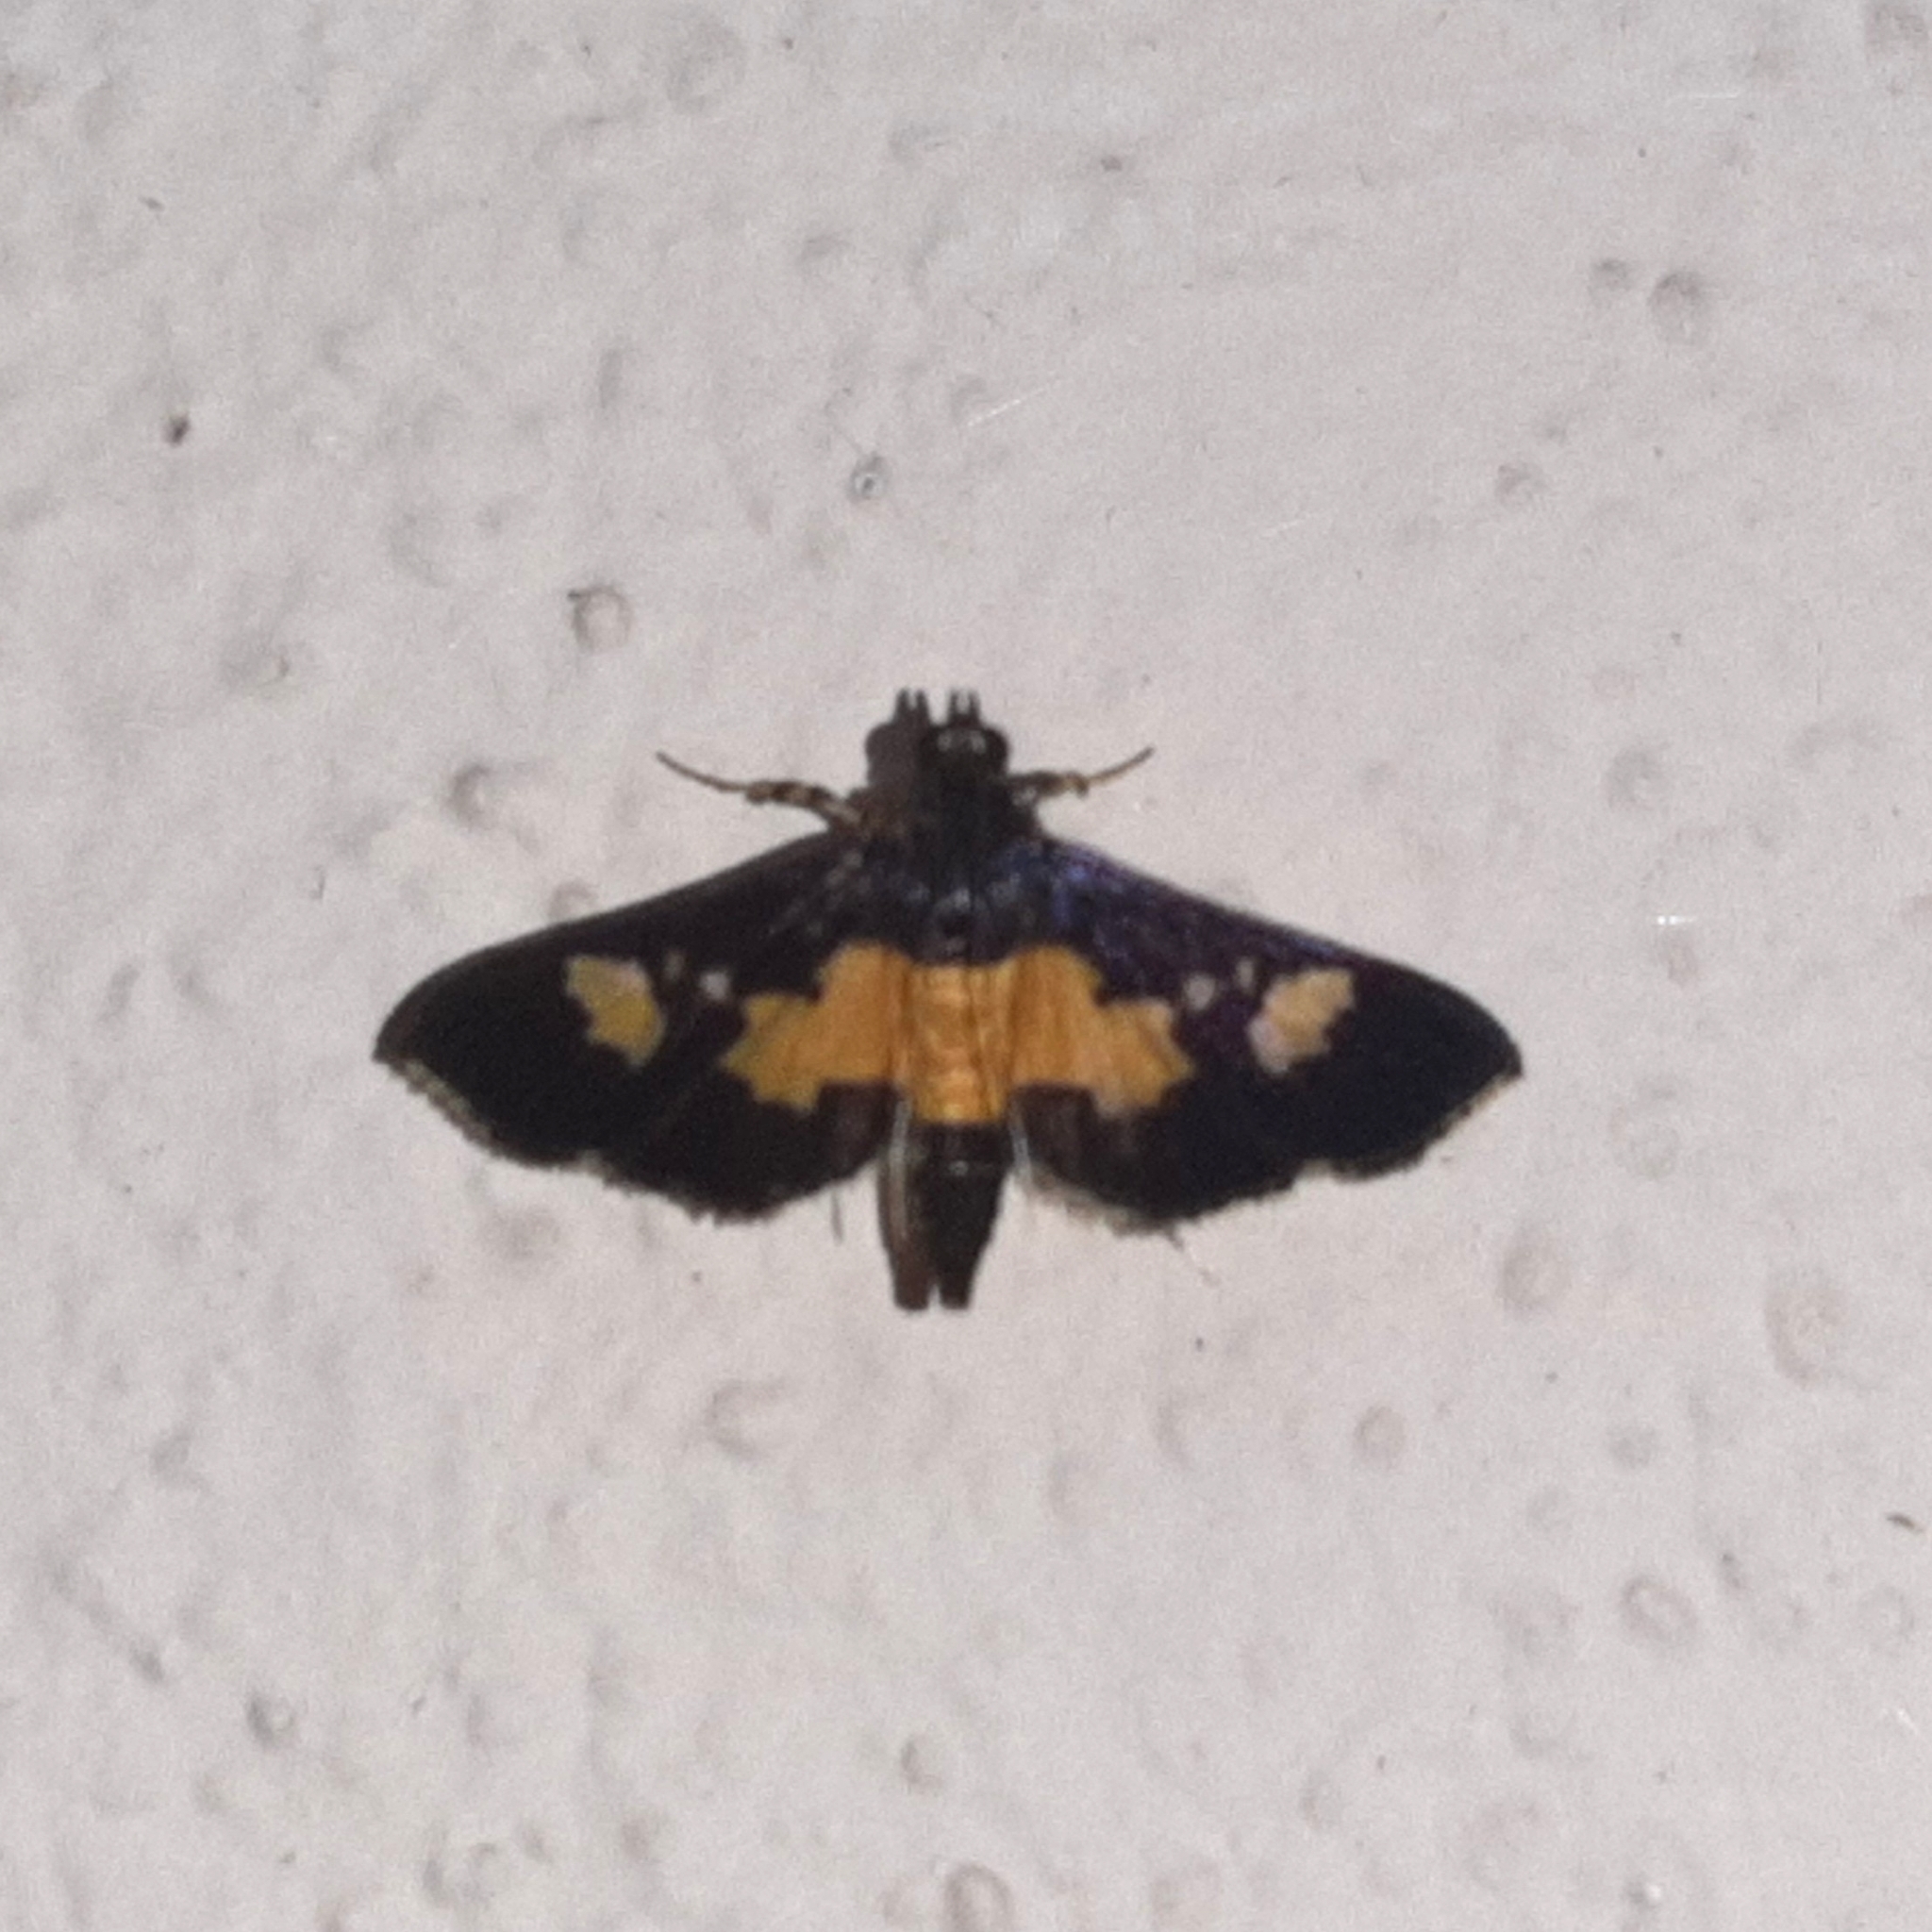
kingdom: Animalia
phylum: Arthropoda
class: Insecta
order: Lepidoptera
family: Crambidae
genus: Salbia
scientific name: Salbia zena
